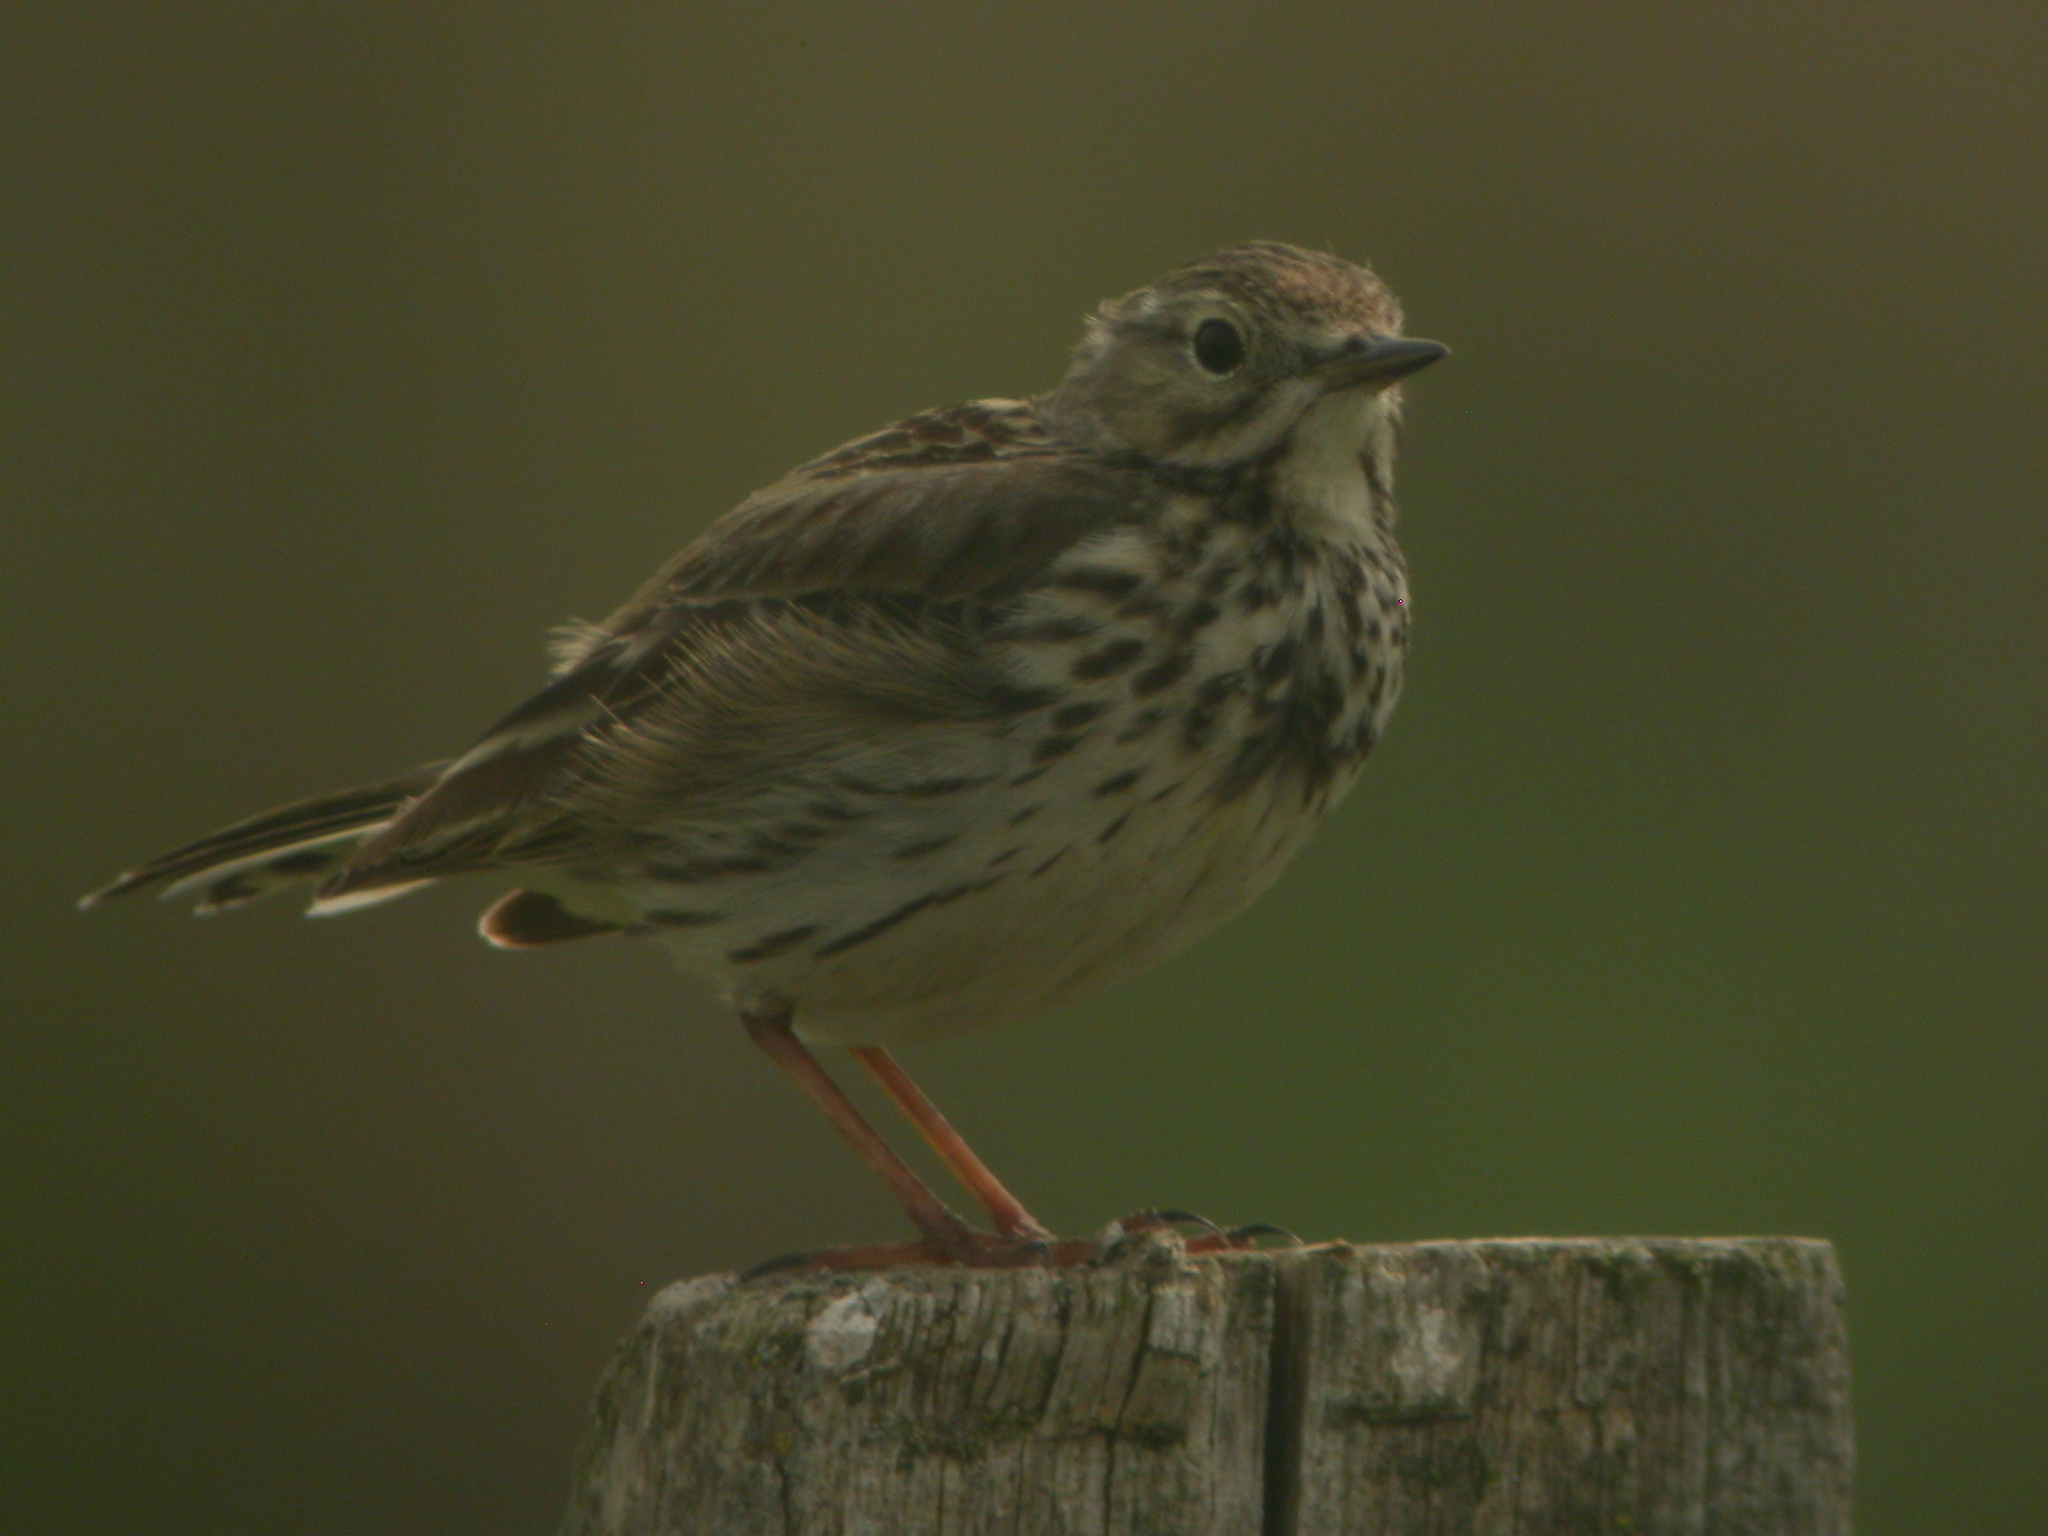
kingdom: Animalia
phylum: Chordata
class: Aves
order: Passeriformes
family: Motacillidae
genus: Anthus
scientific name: Anthus pratensis
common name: Meadow pipit
